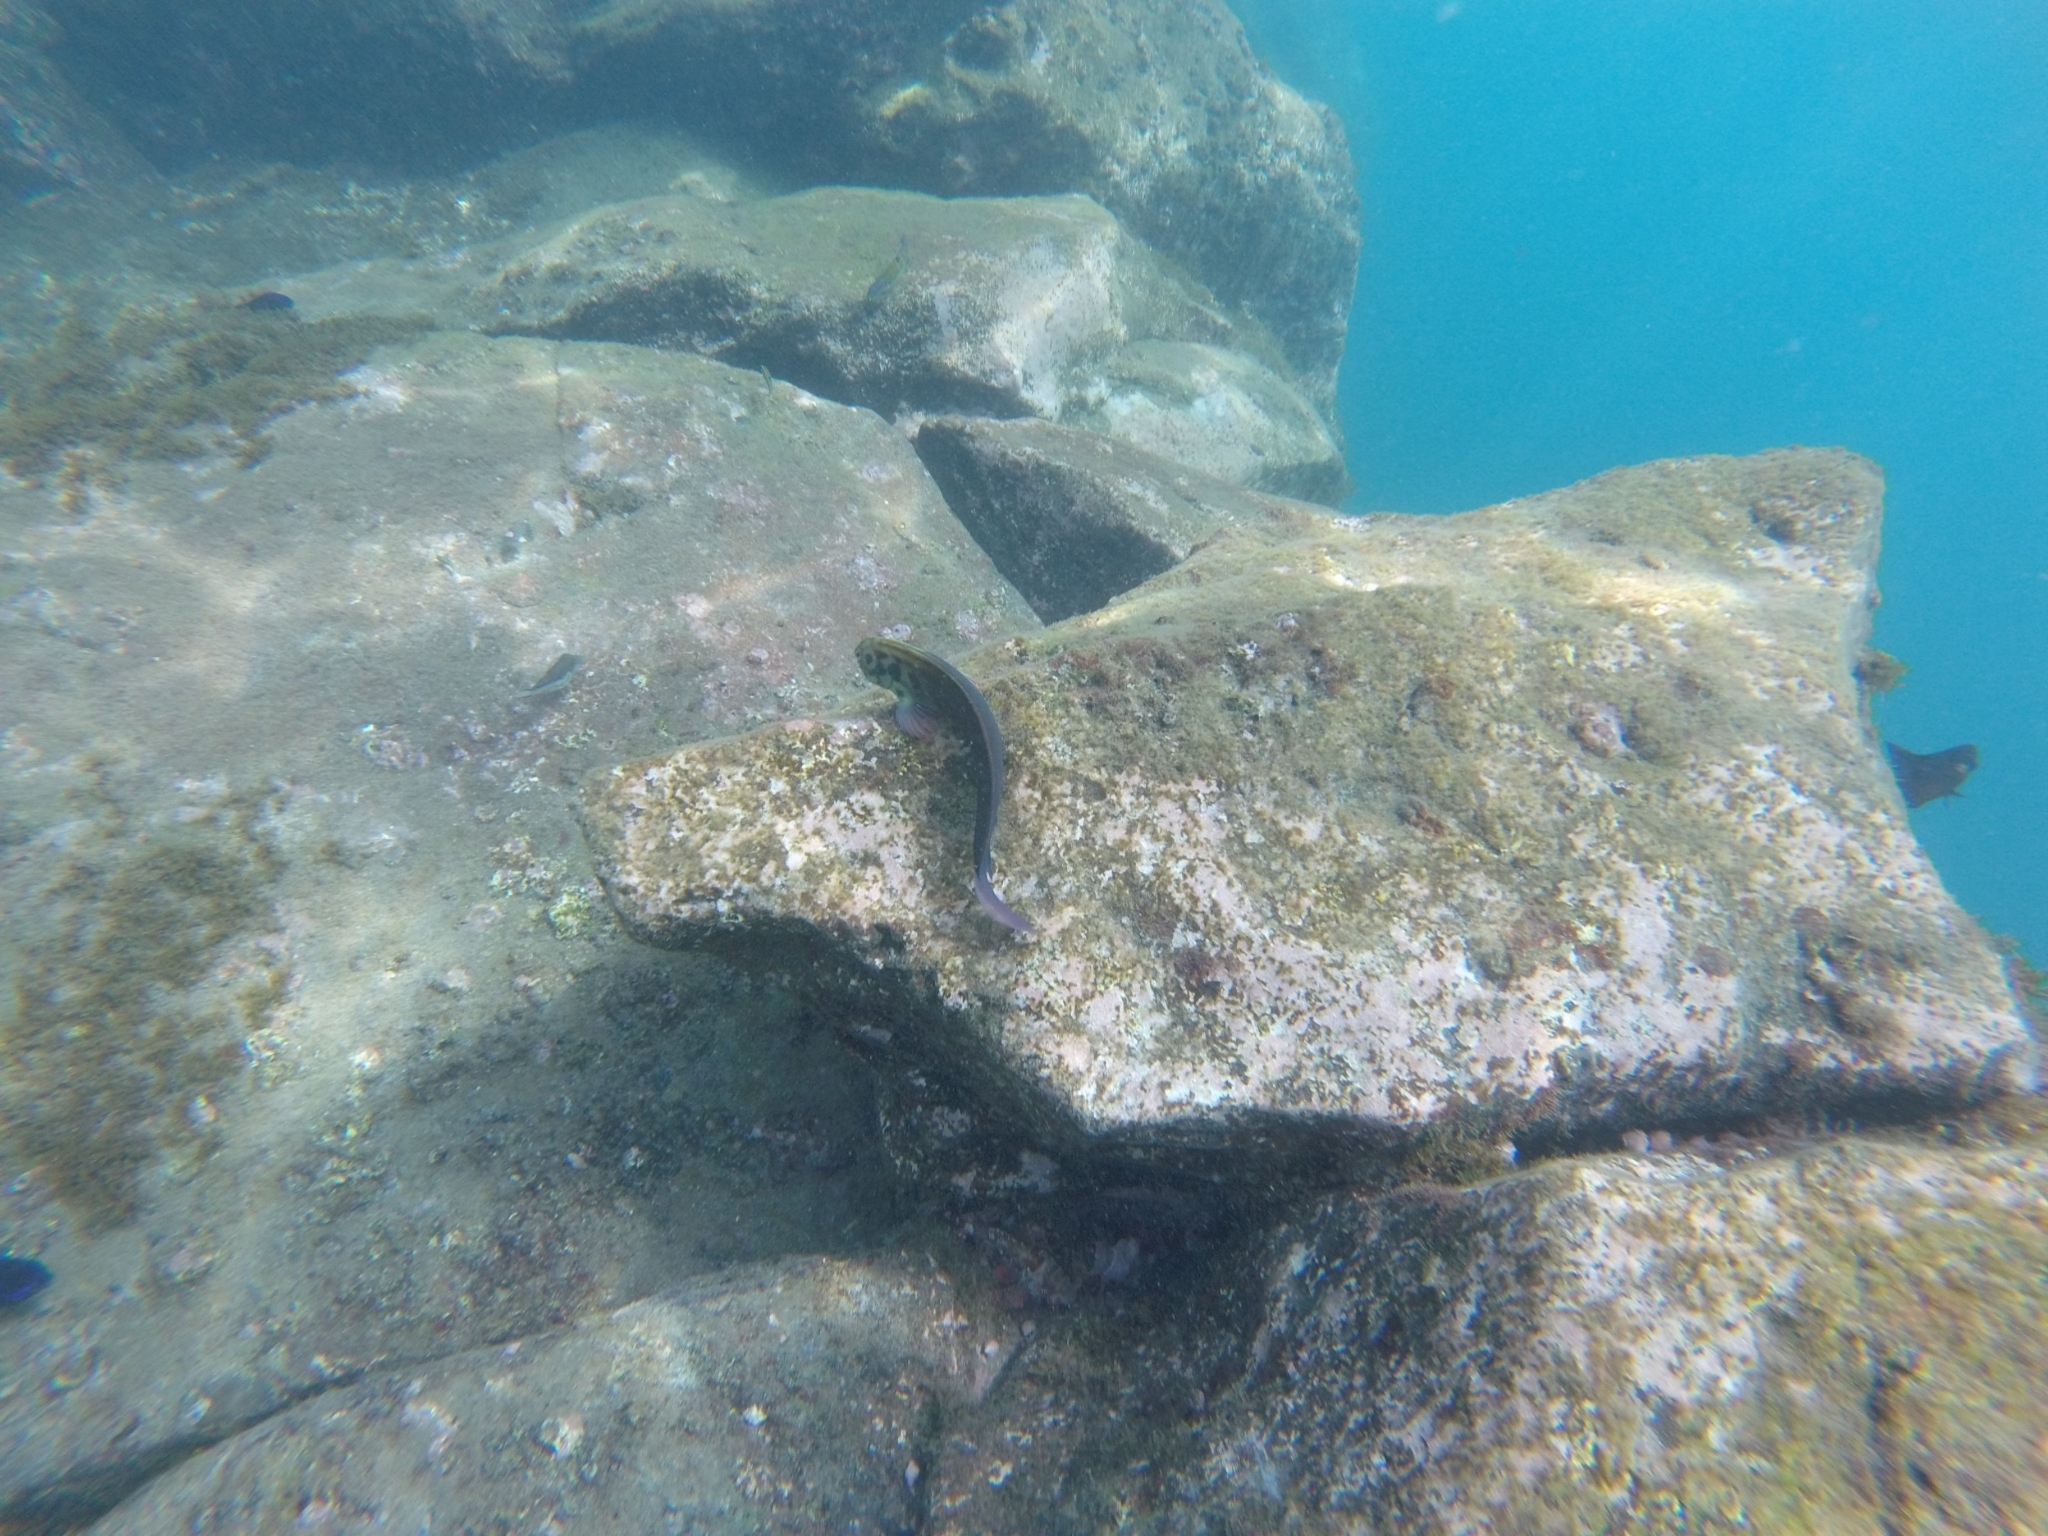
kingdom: Animalia
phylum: Chordata
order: Perciformes
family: Blenniidae
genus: Ophioblennius
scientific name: Ophioblennius atlanticus
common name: Redlip blenny
